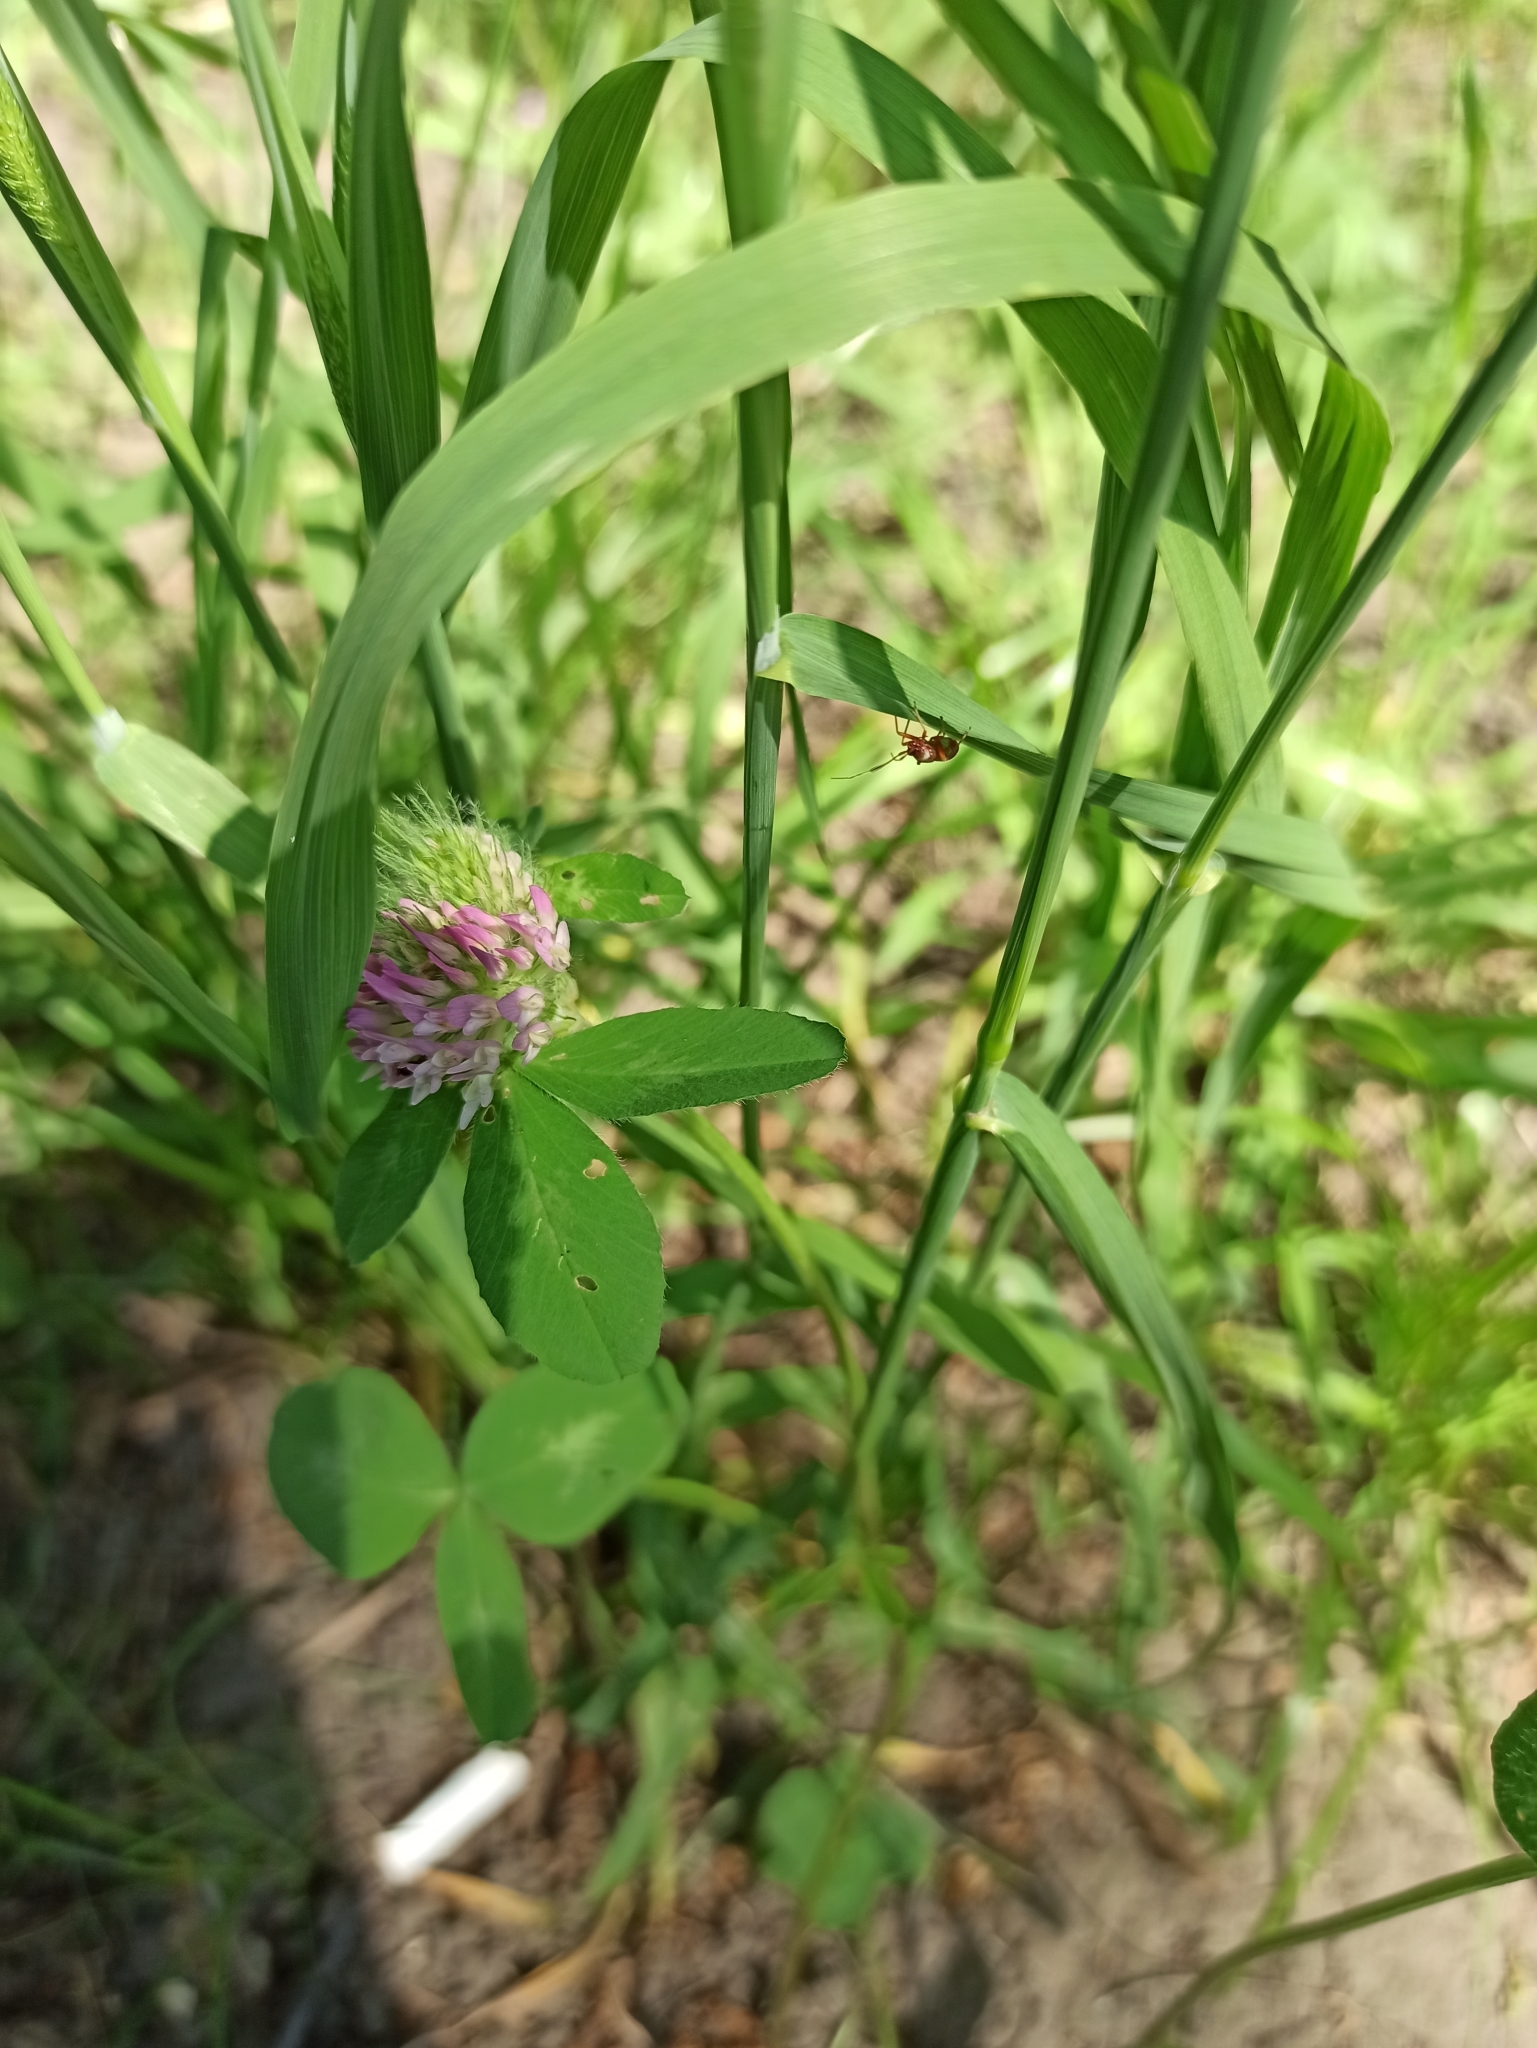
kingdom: Plantae
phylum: Tracheophyta
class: Magnoliopsida
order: Fabales
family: Fabaceae
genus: Trifolium
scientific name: Trifolium pratense
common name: Red clover
